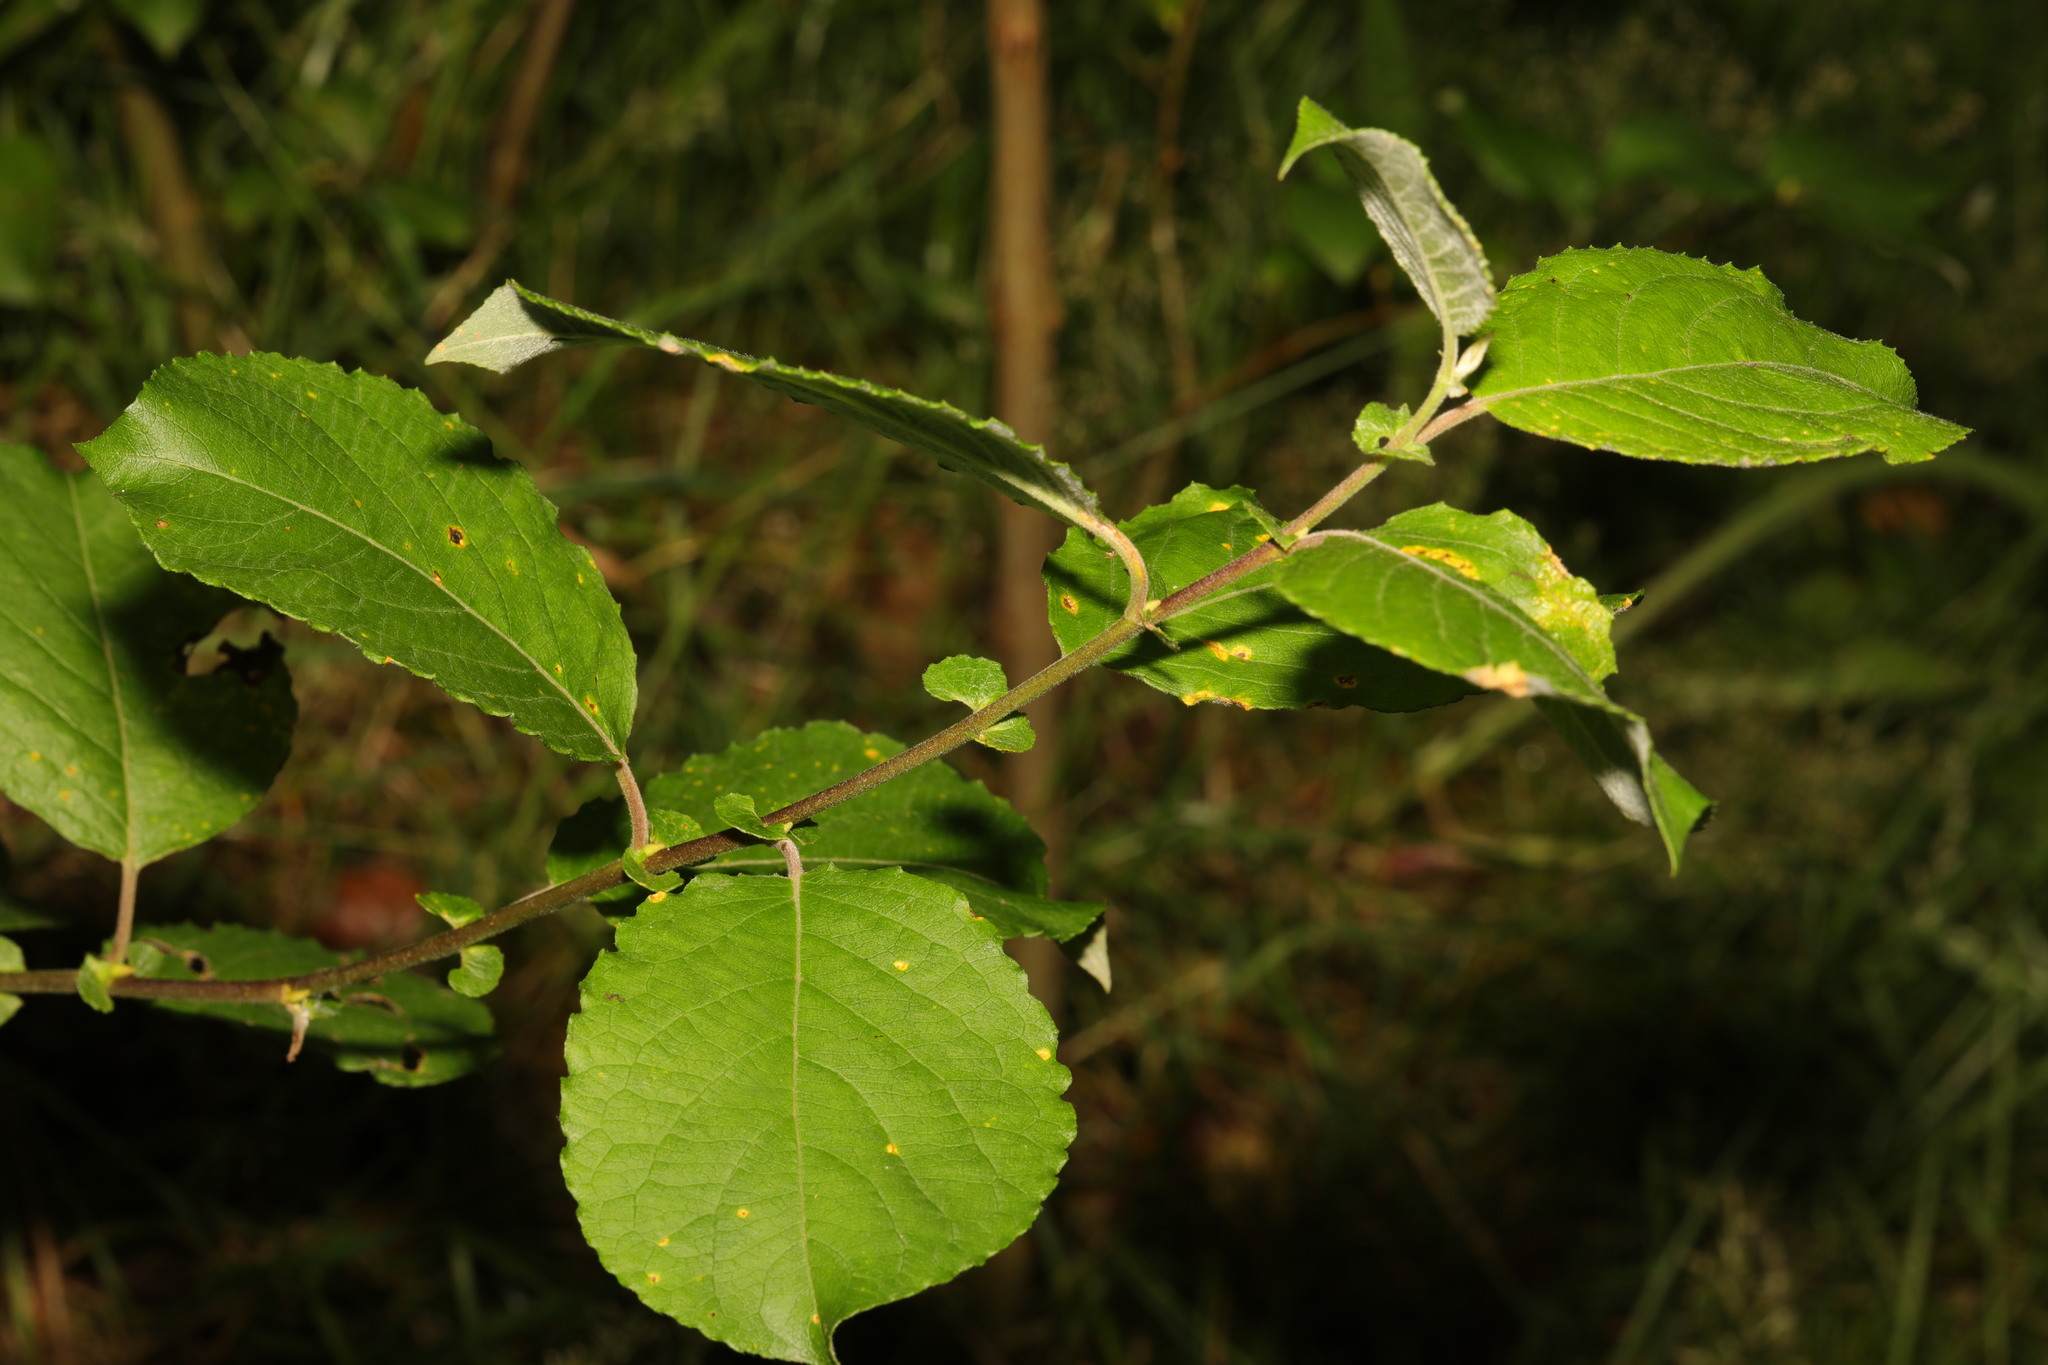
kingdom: Plantae
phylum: Tracheophyta
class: Magnoliopsida
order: Malpighiales
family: Salicaceae
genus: Salix
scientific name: Salix caprea
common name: Goat willow
